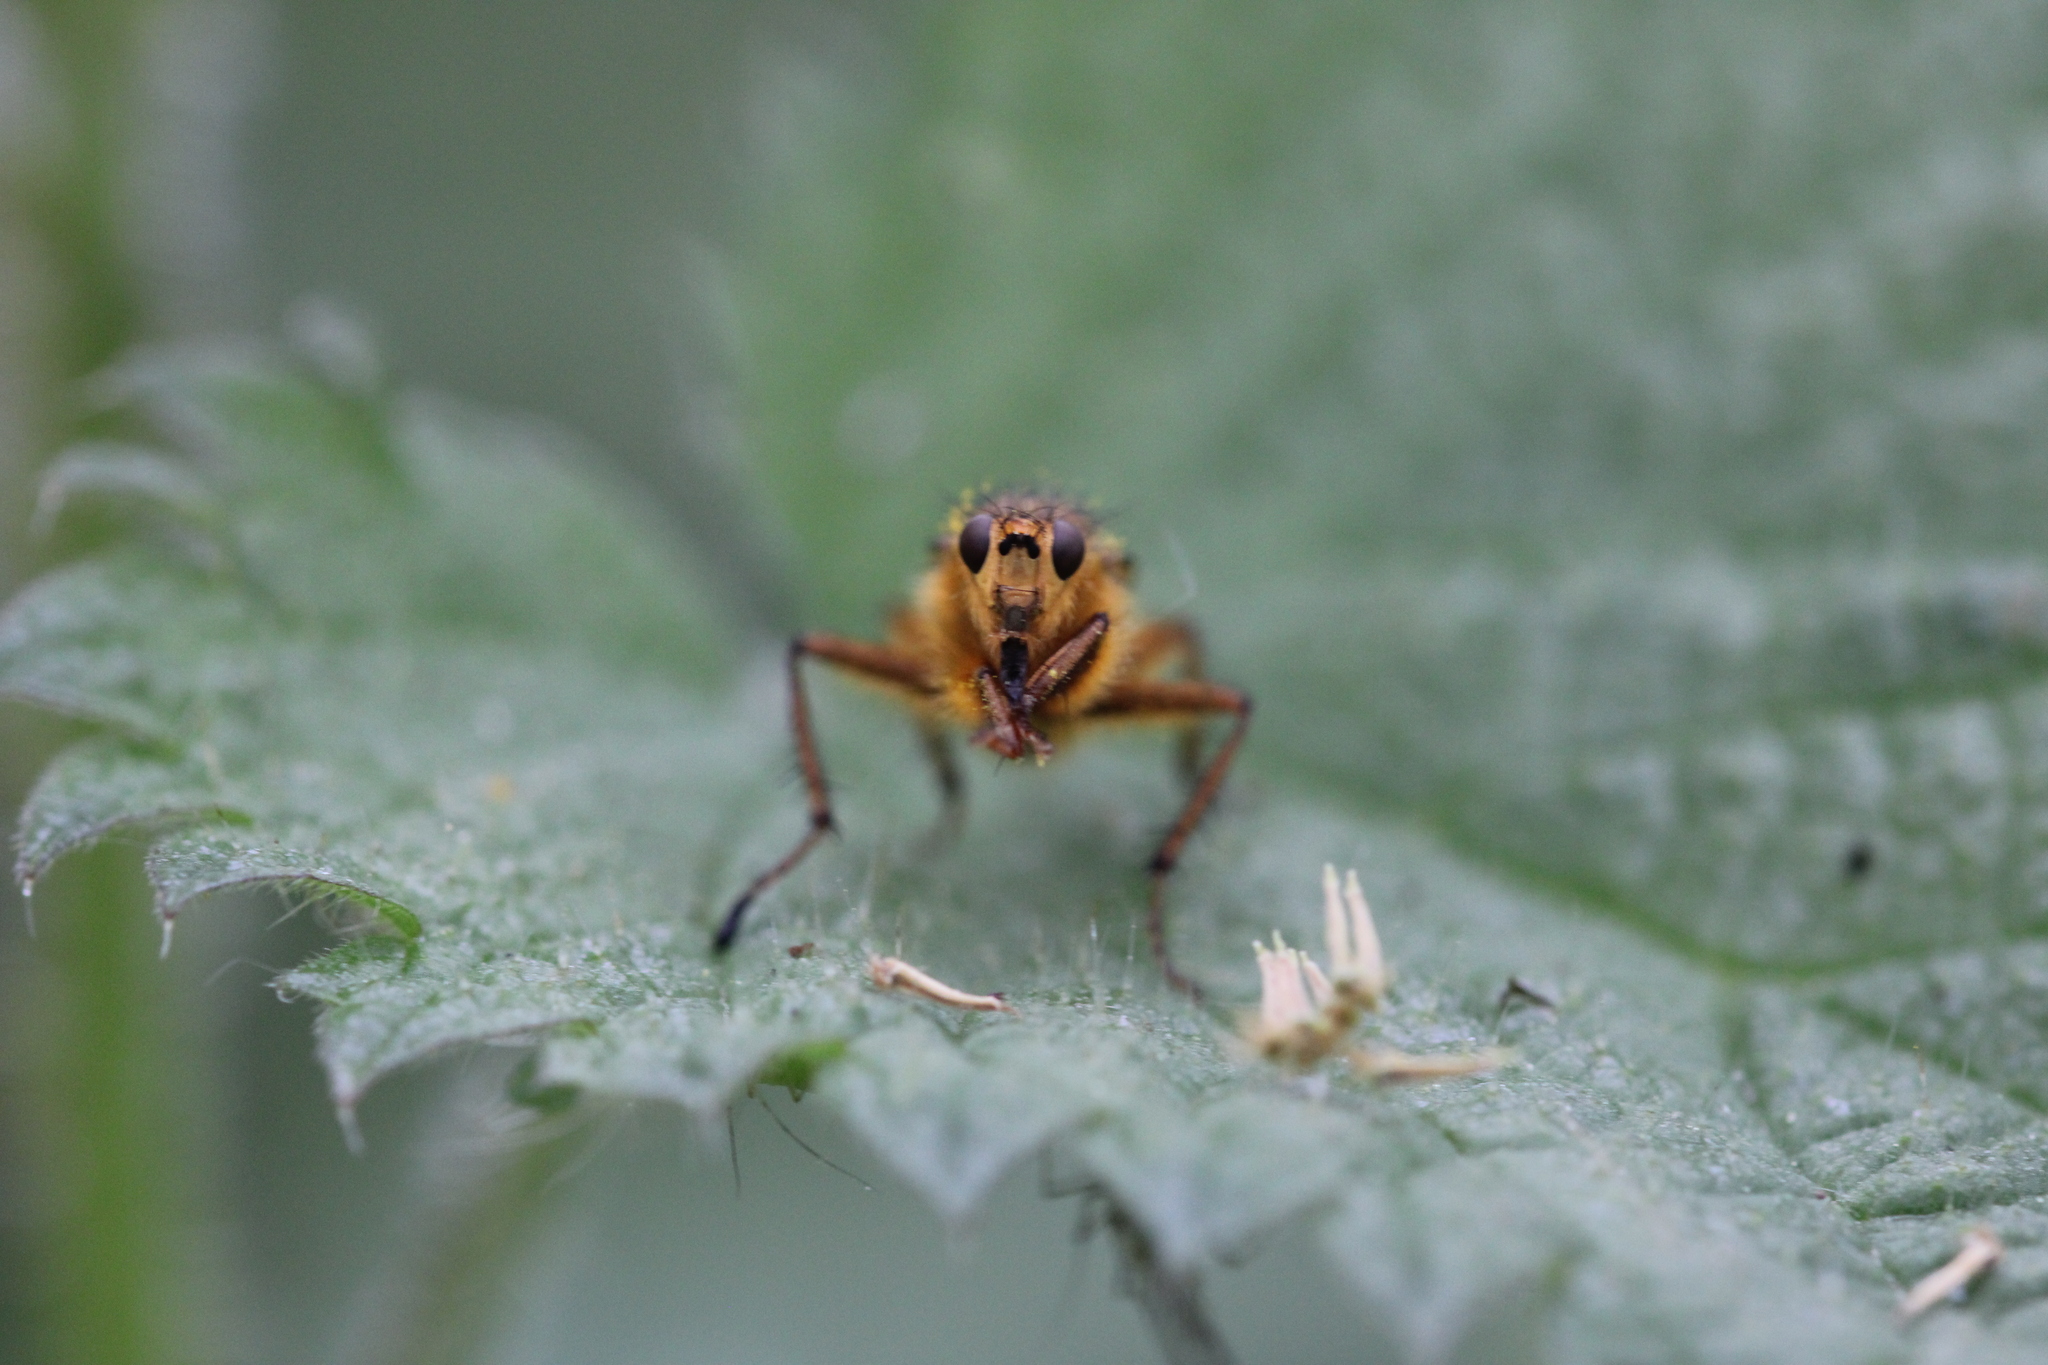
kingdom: Animalia
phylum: Arthropoda
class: Insecta
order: Diptera
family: Scathophagidae
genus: Scathophaga
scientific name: Scathophaga stercoraria
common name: Yellow dung fly
